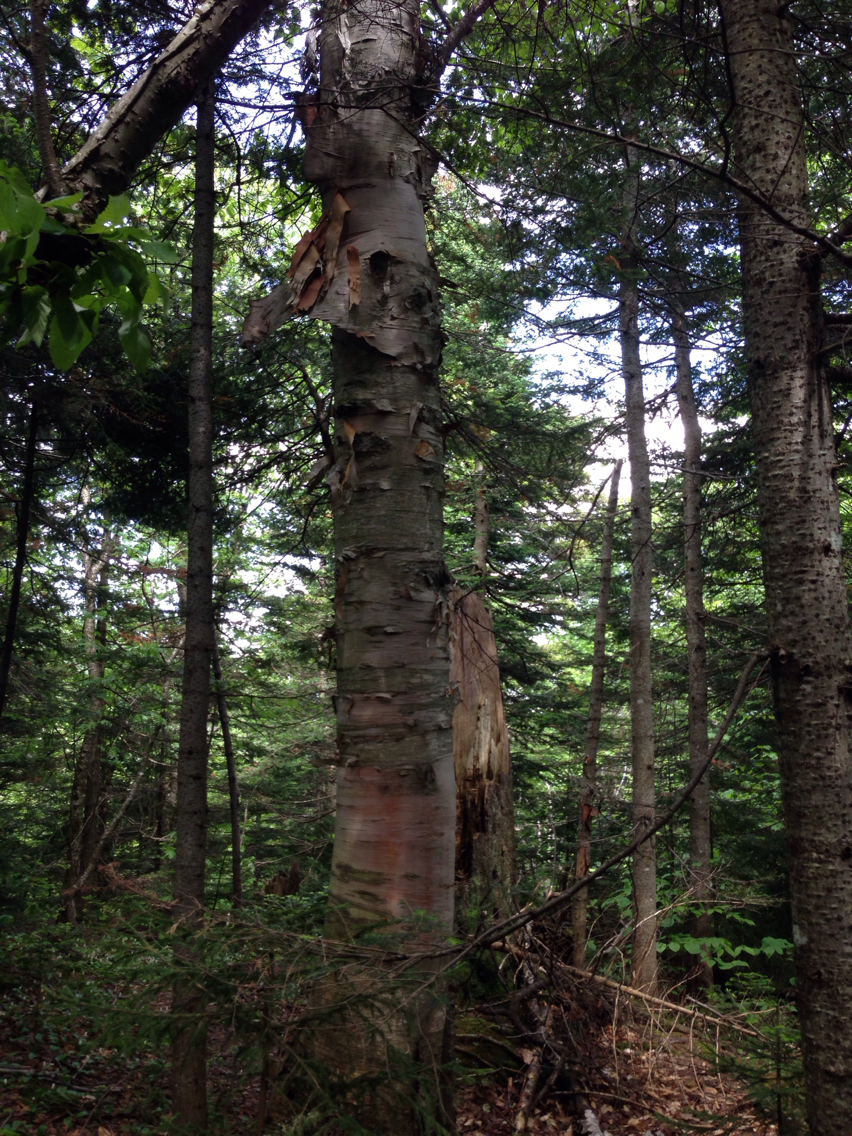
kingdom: Plantae
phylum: Tracheophyta
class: Magnoliopsida
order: Fagales
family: Betulaceae
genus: Betula
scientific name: Betula cordifolia
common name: Mountain white birch
